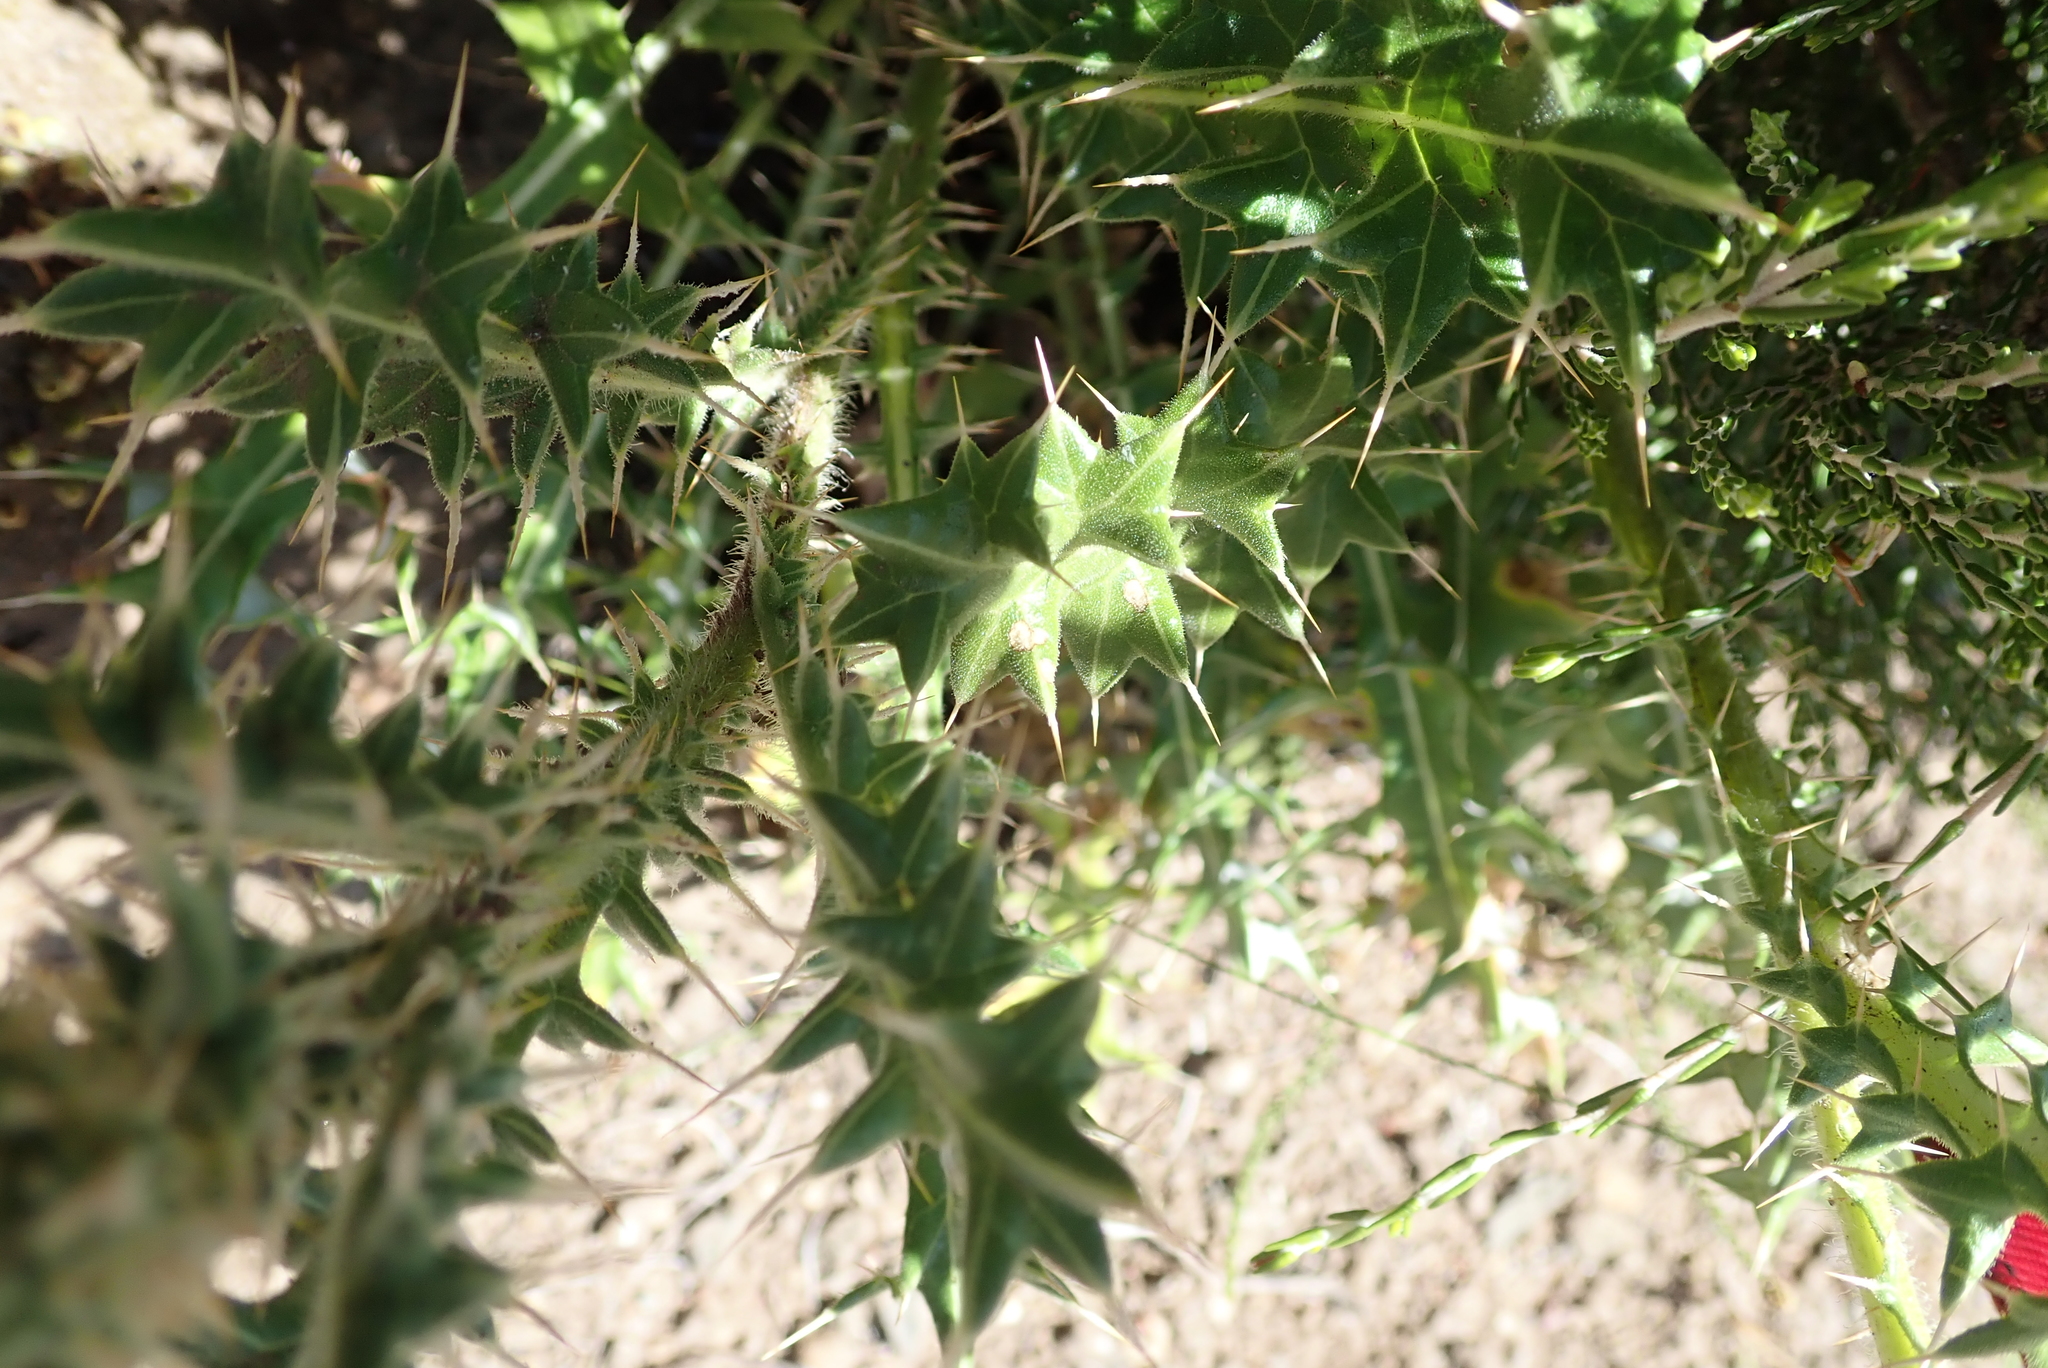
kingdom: Plantae
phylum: Tracheophyta
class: Magnoliopsida
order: Asterales
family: Asteraceae
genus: Berkheya
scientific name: Berkheya cirsiifolia
